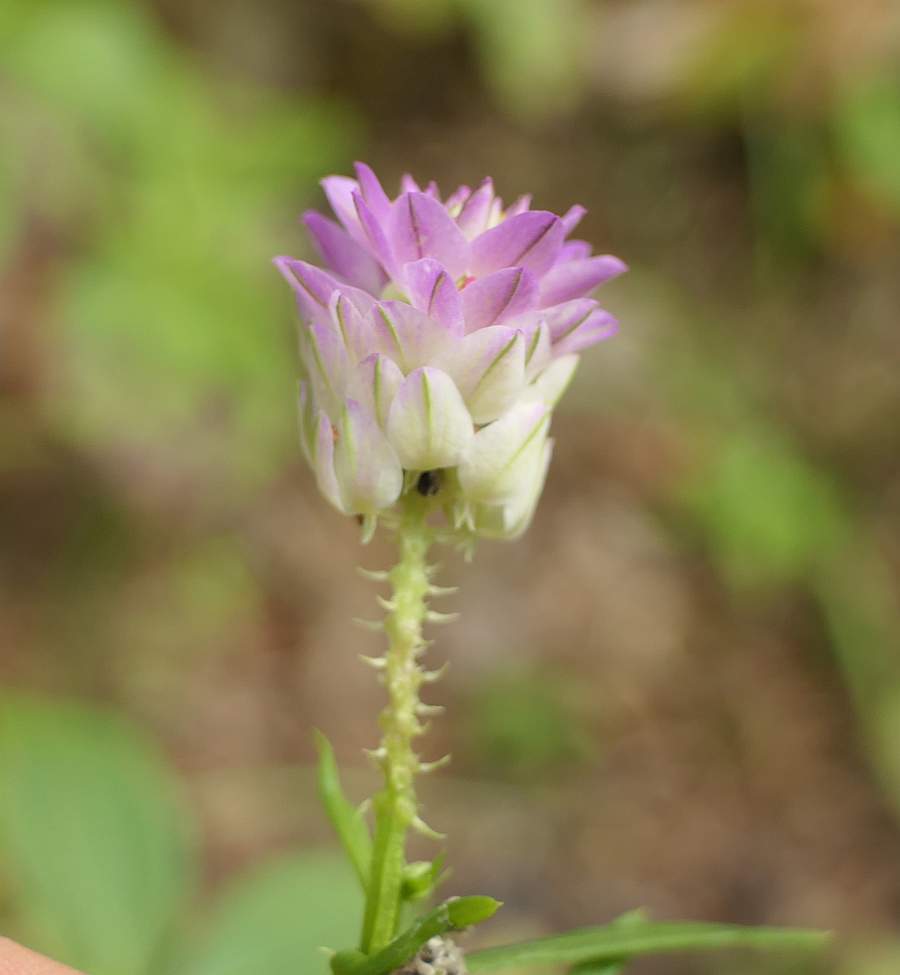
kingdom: Plantae
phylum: Tracheophyta
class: Magnoliopsida
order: Fabales
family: Polygalaceae
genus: Polygala
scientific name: Polygala sanguinea
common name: Blood milkwort
